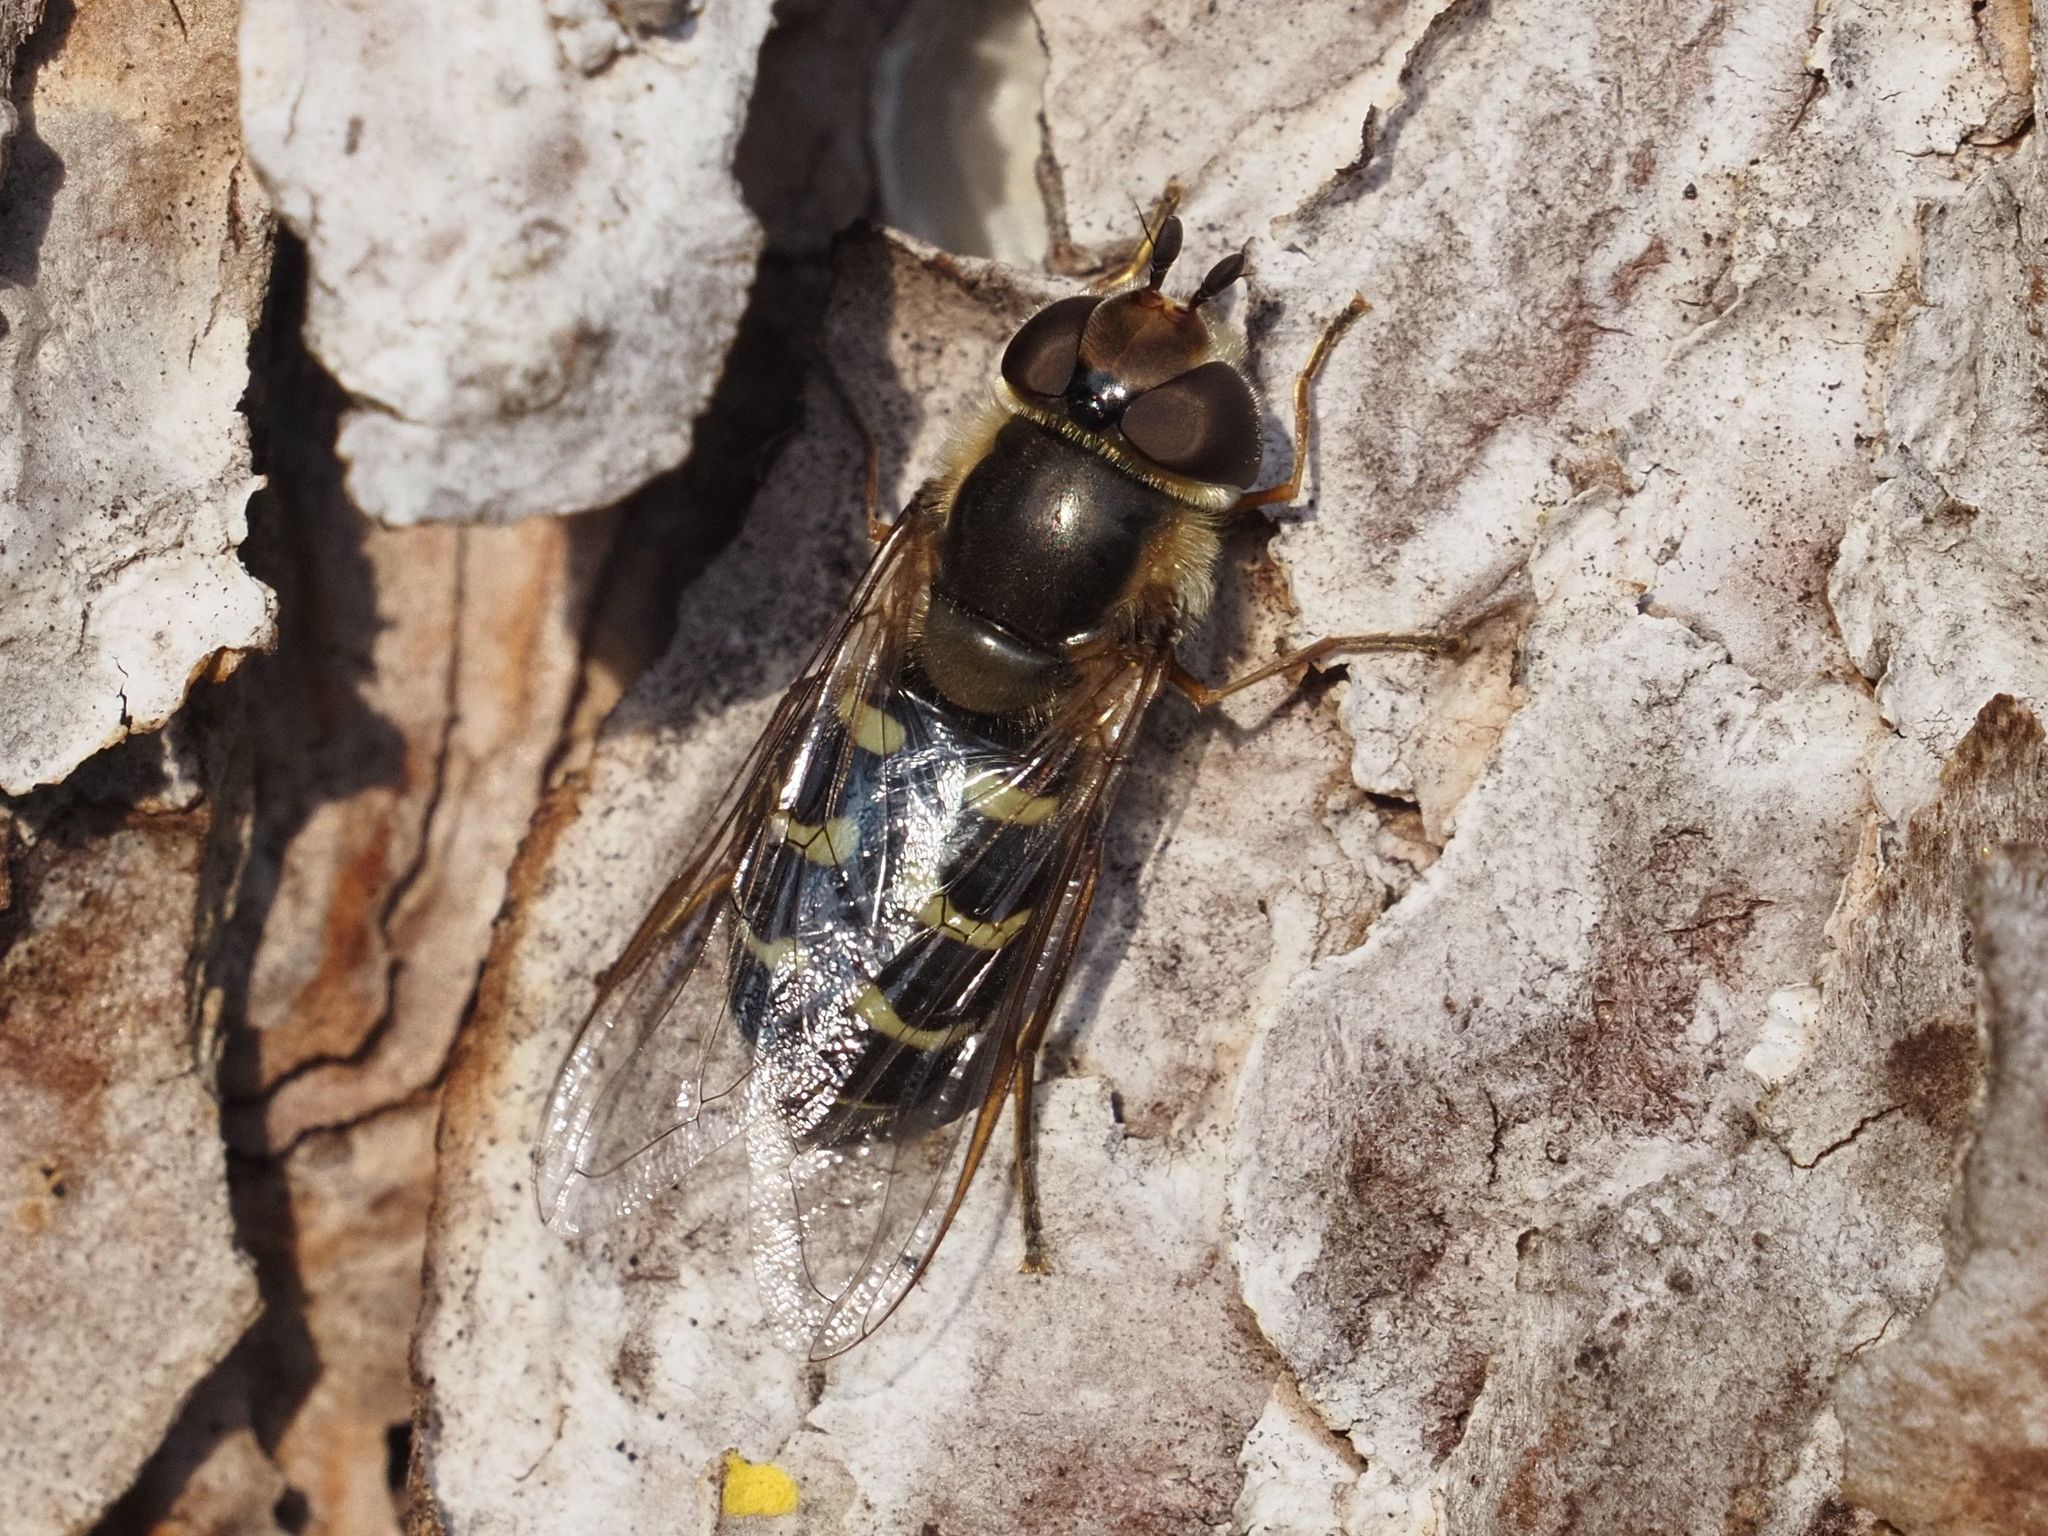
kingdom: Animalia
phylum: Arthropoda
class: Insecta
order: Diptera
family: Syrphidae
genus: Scaeva
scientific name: Scaeva selenitica
